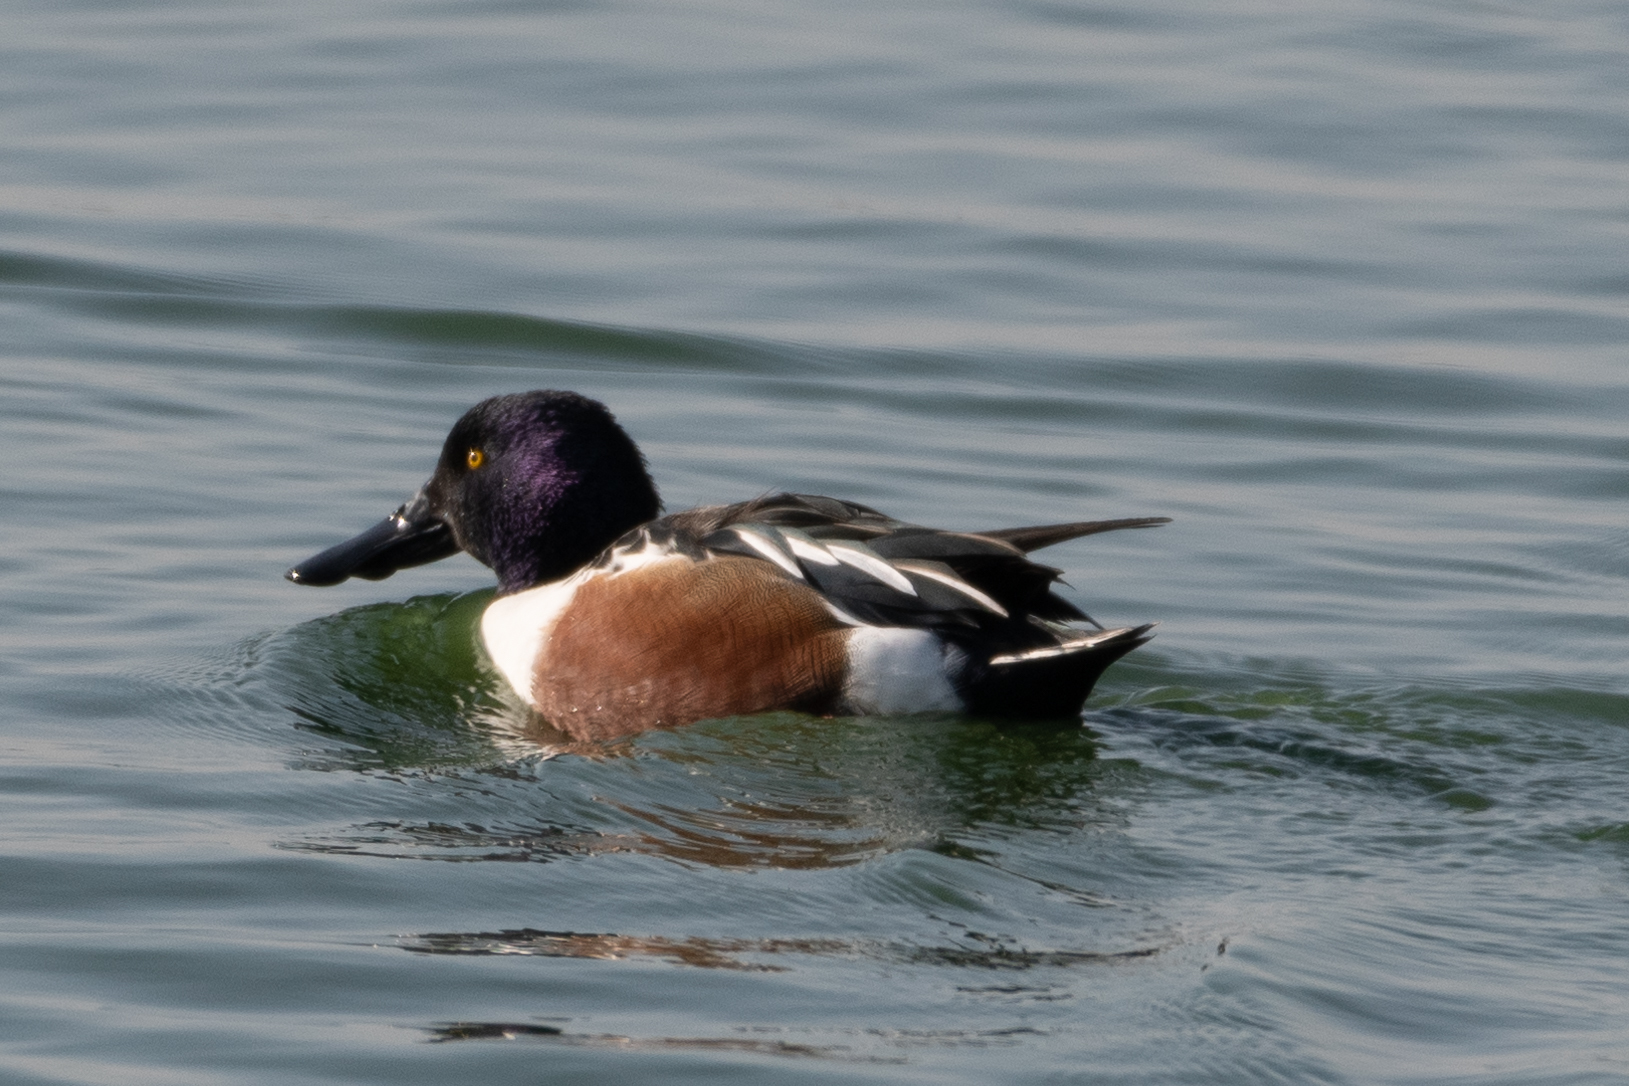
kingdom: Animalia
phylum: Chordata
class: Aves
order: Anseriformes
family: Anatidae
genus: Spatula
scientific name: Spatula clypeata
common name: Northern shoveler
